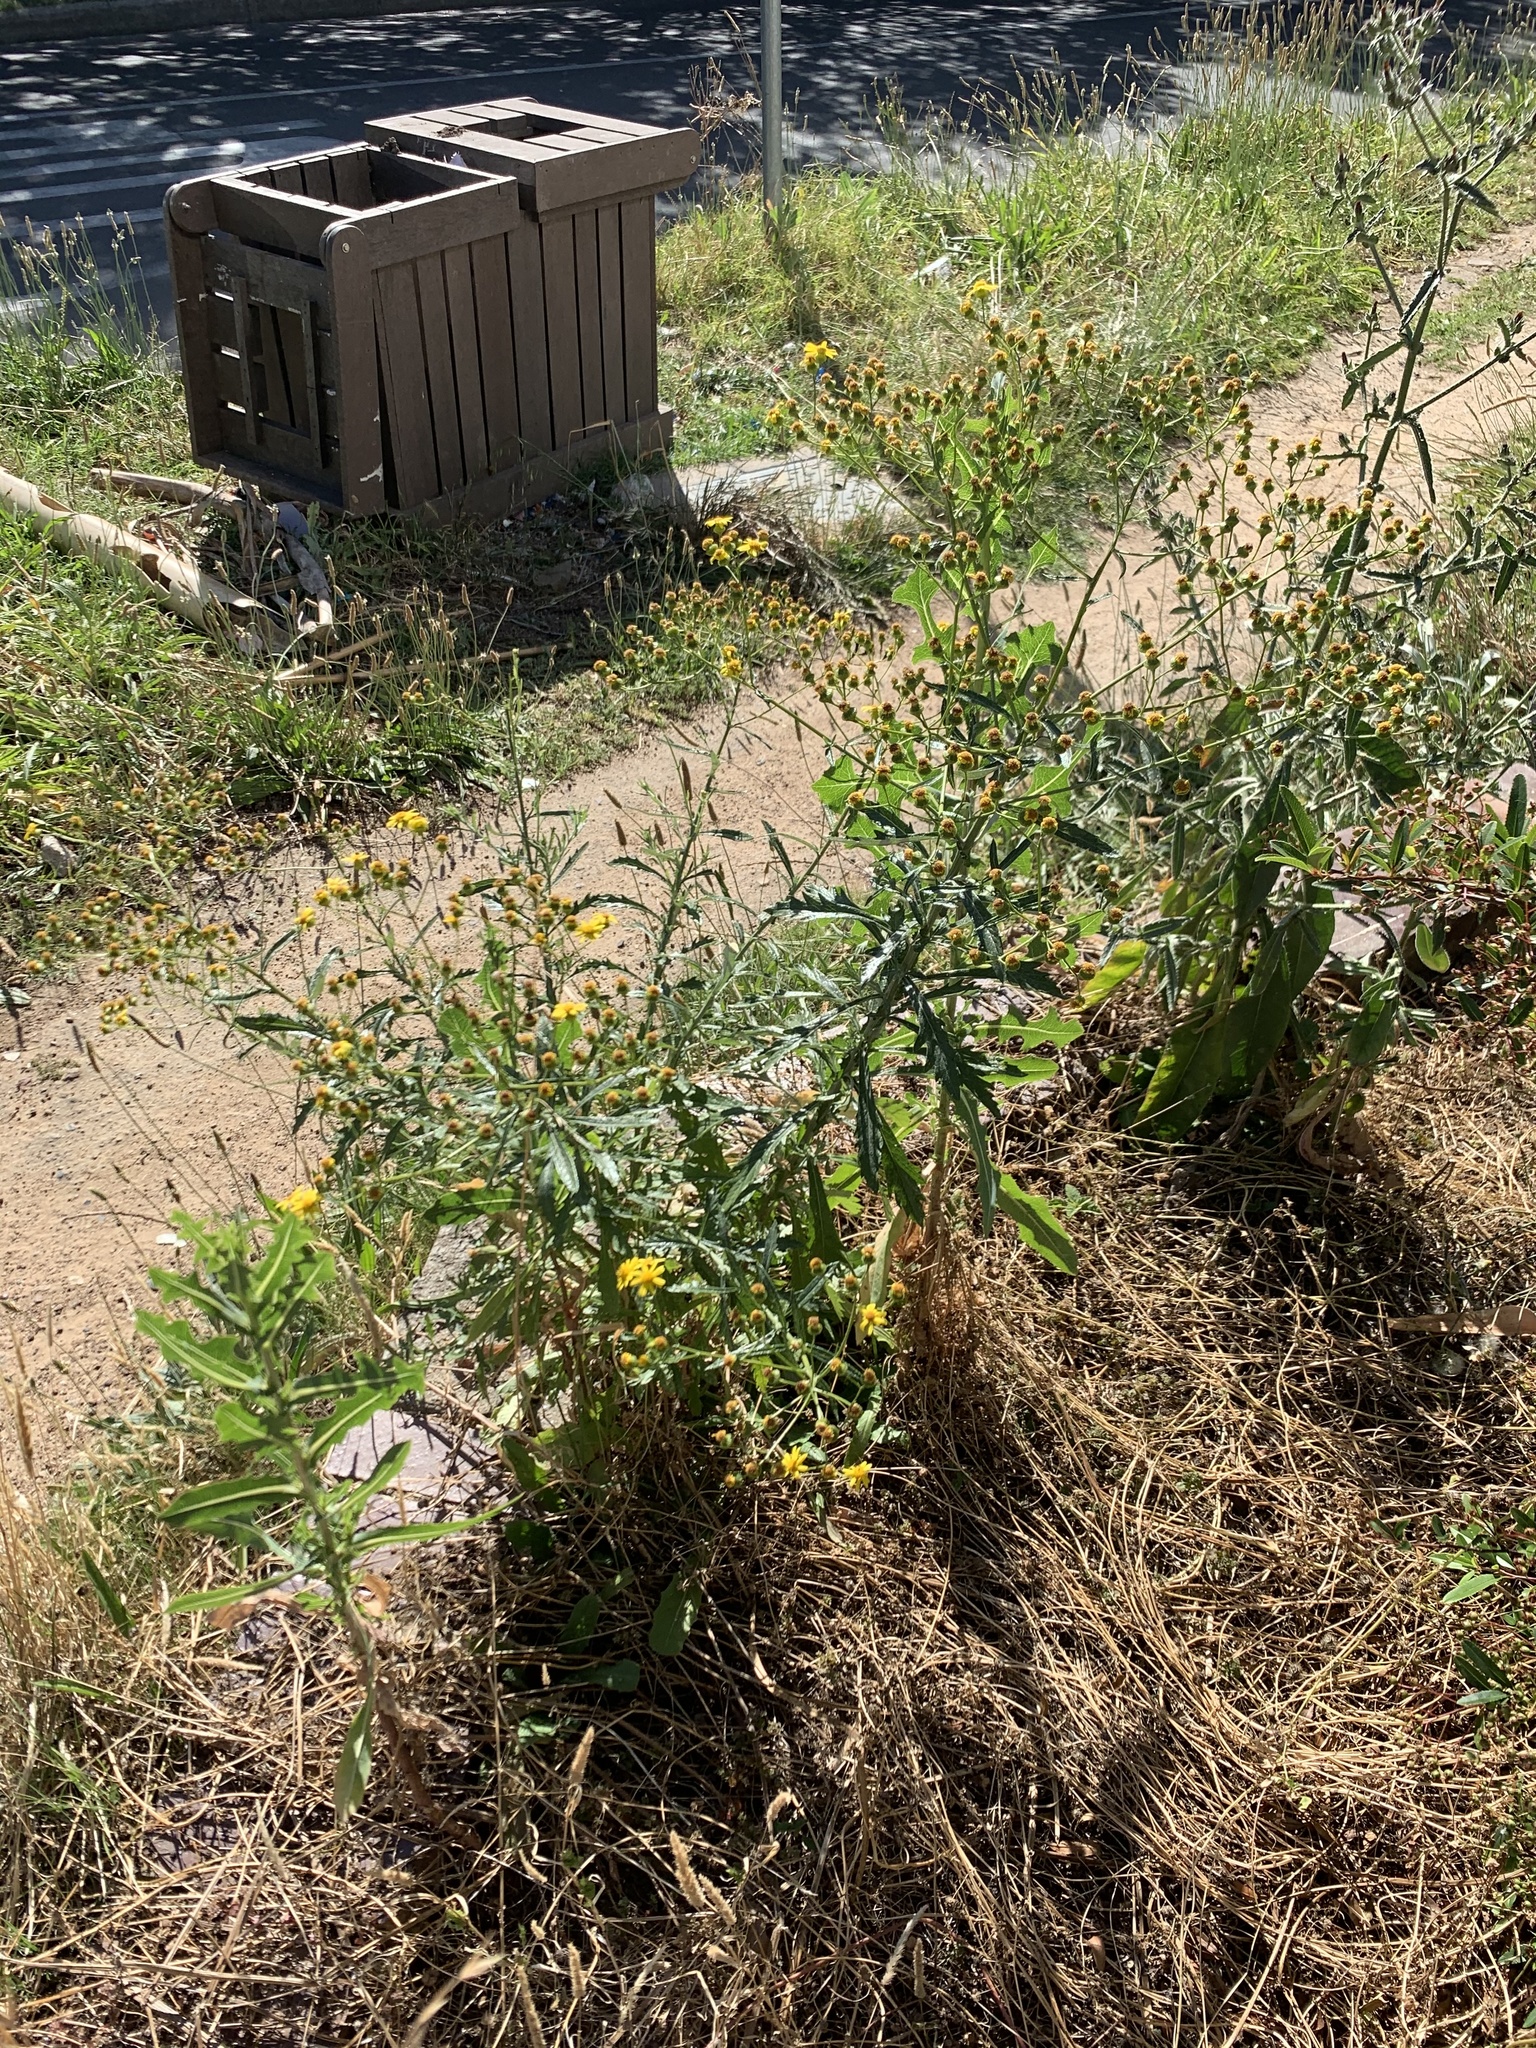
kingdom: Plantae
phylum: Tracheophyta
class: Magnoliopsida
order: Asterales
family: Asteraceae
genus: Senecio
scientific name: Senecio pterophorus
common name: Shoddy ragwort
